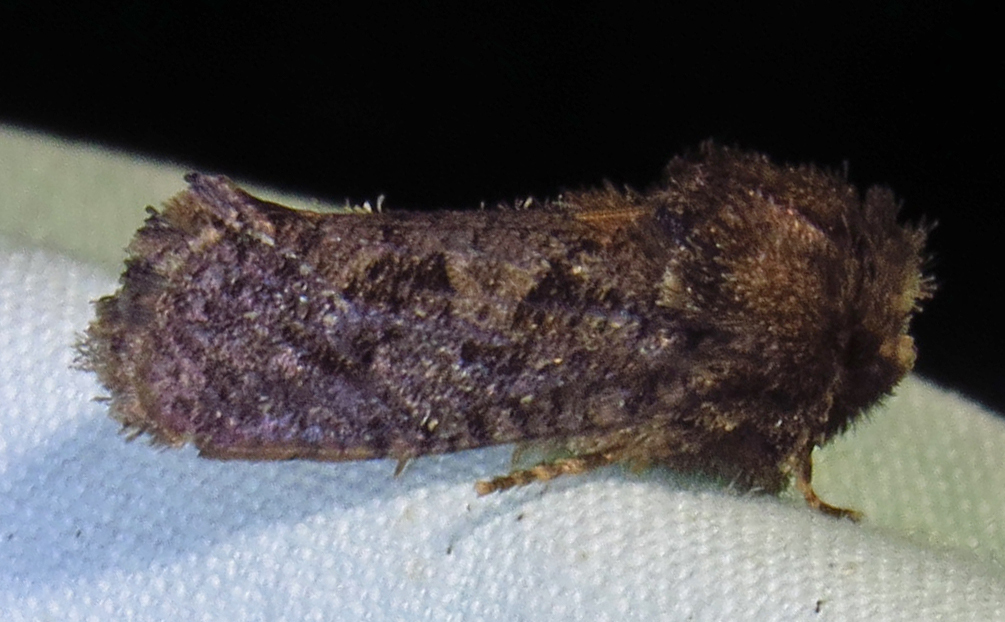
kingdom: Animalia
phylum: Arthropoda
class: Insecta
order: Lepidoptera
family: Tineidae
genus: Acrolophus
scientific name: Acrolophus arcanella
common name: Arcane grass tubeworm moth
